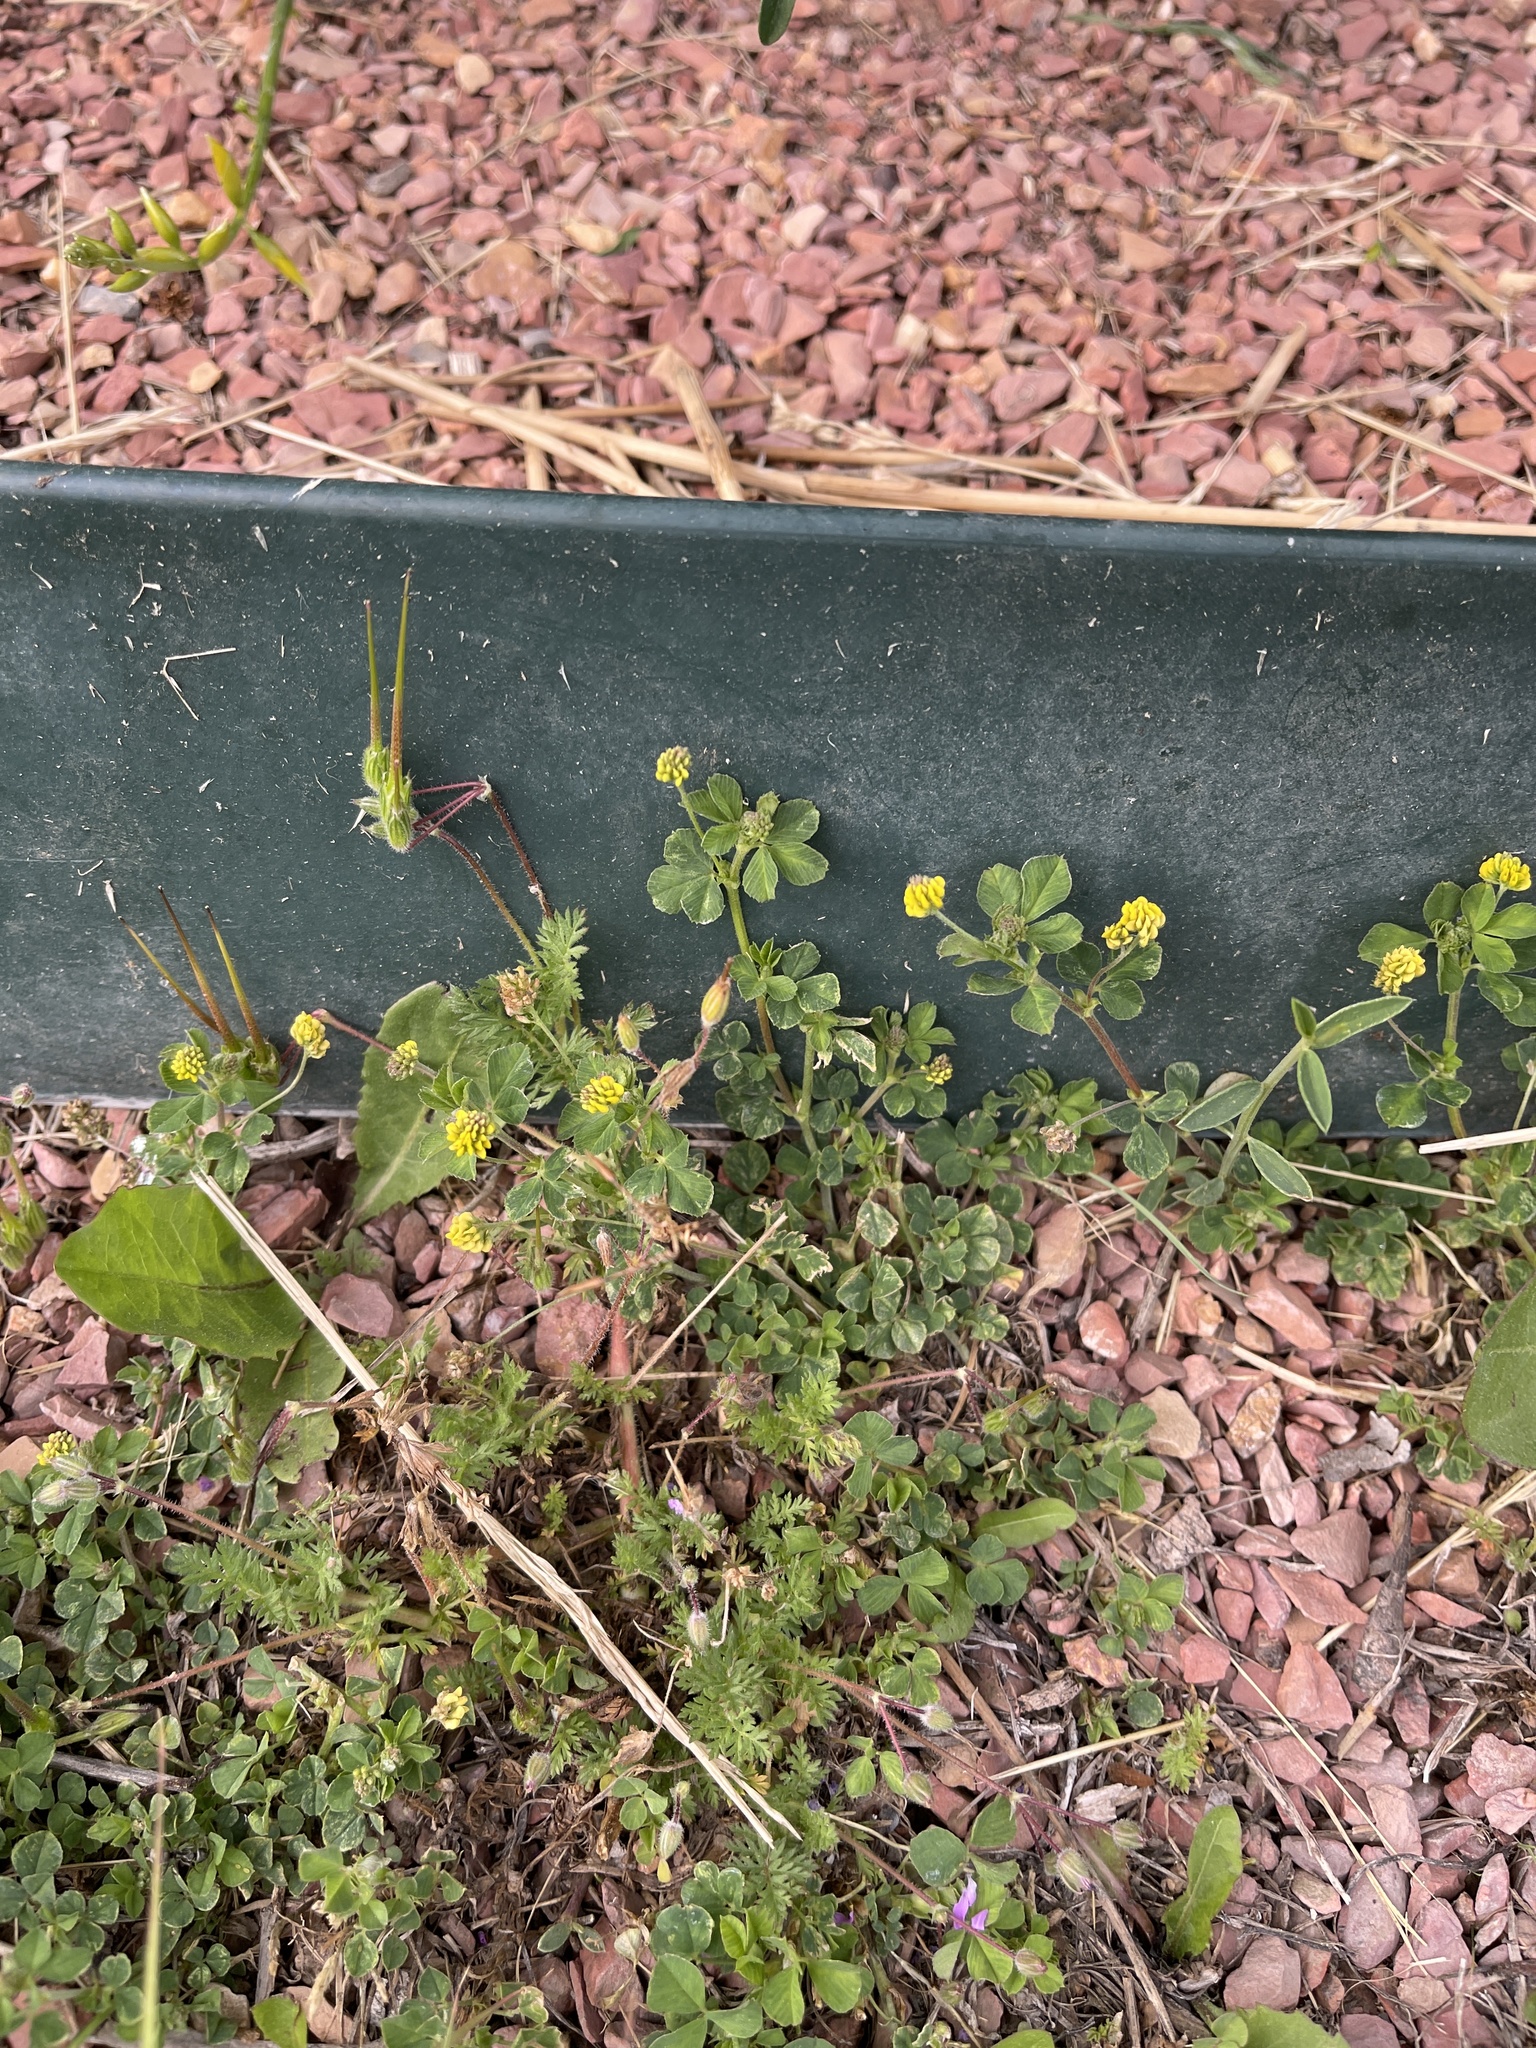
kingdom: Plantae
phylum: Tracheophyta
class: Magnoliopsida
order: Fabales
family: Fabaceae
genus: Medicago
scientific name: Medicago lupulina
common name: Black medick
